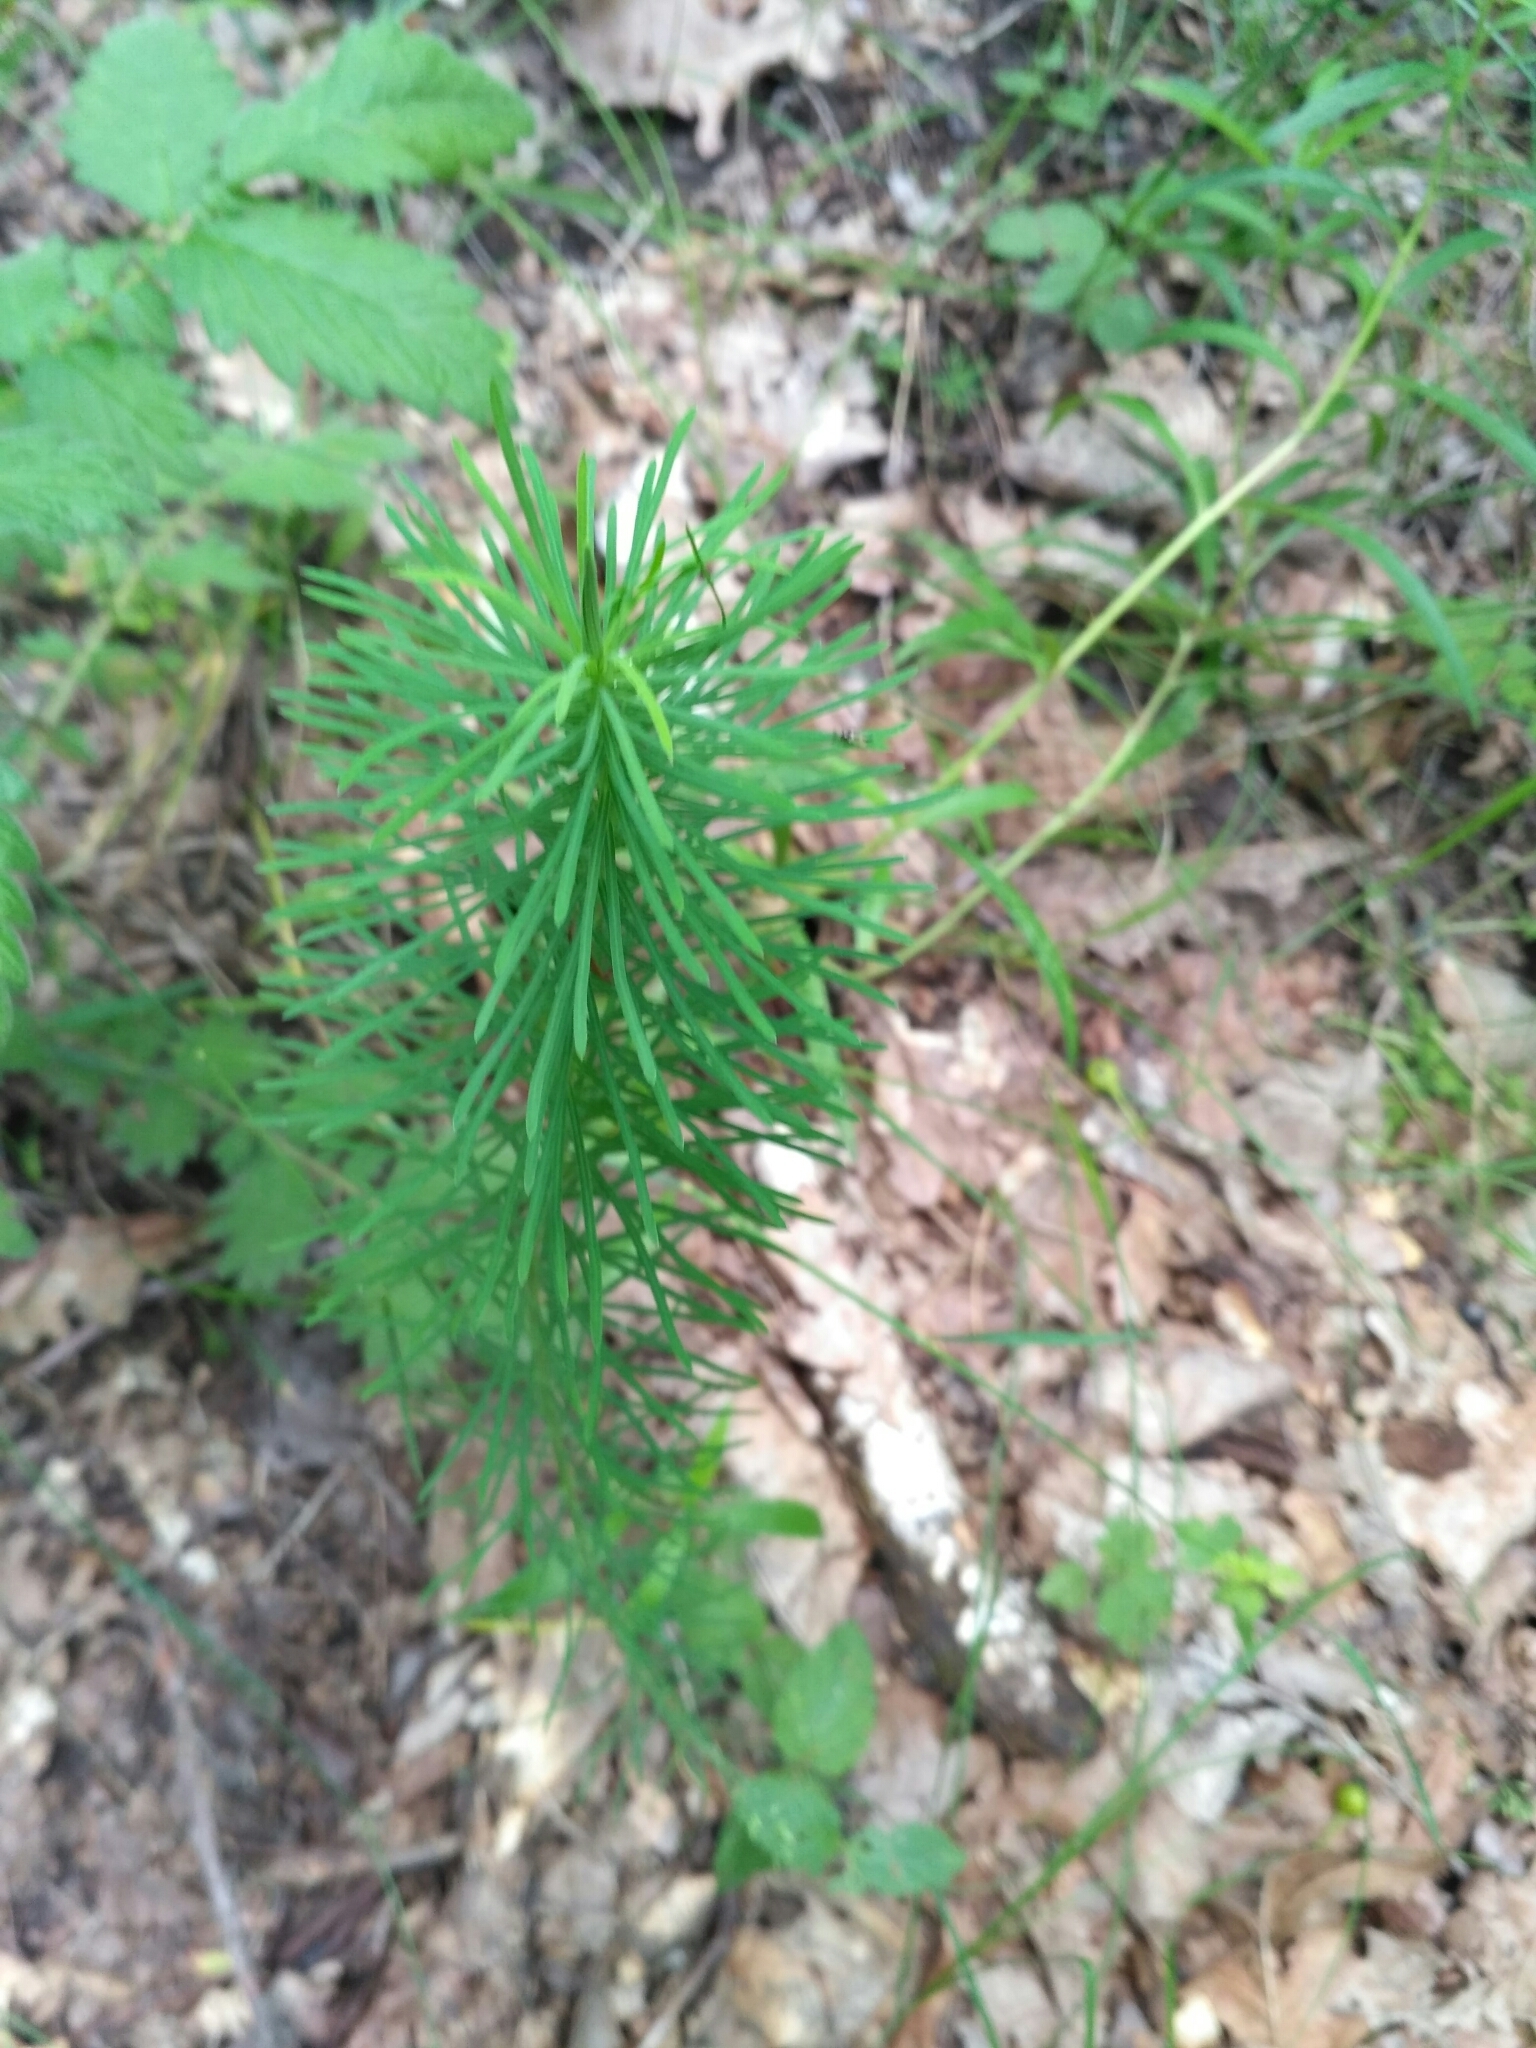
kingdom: Plantae
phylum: Tracheophyta
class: Magnoliopsida
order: Malpighiales
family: Euphorbiaceae
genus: Euphorbia
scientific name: Euphorbia cyparissias
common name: Cypress spurge
